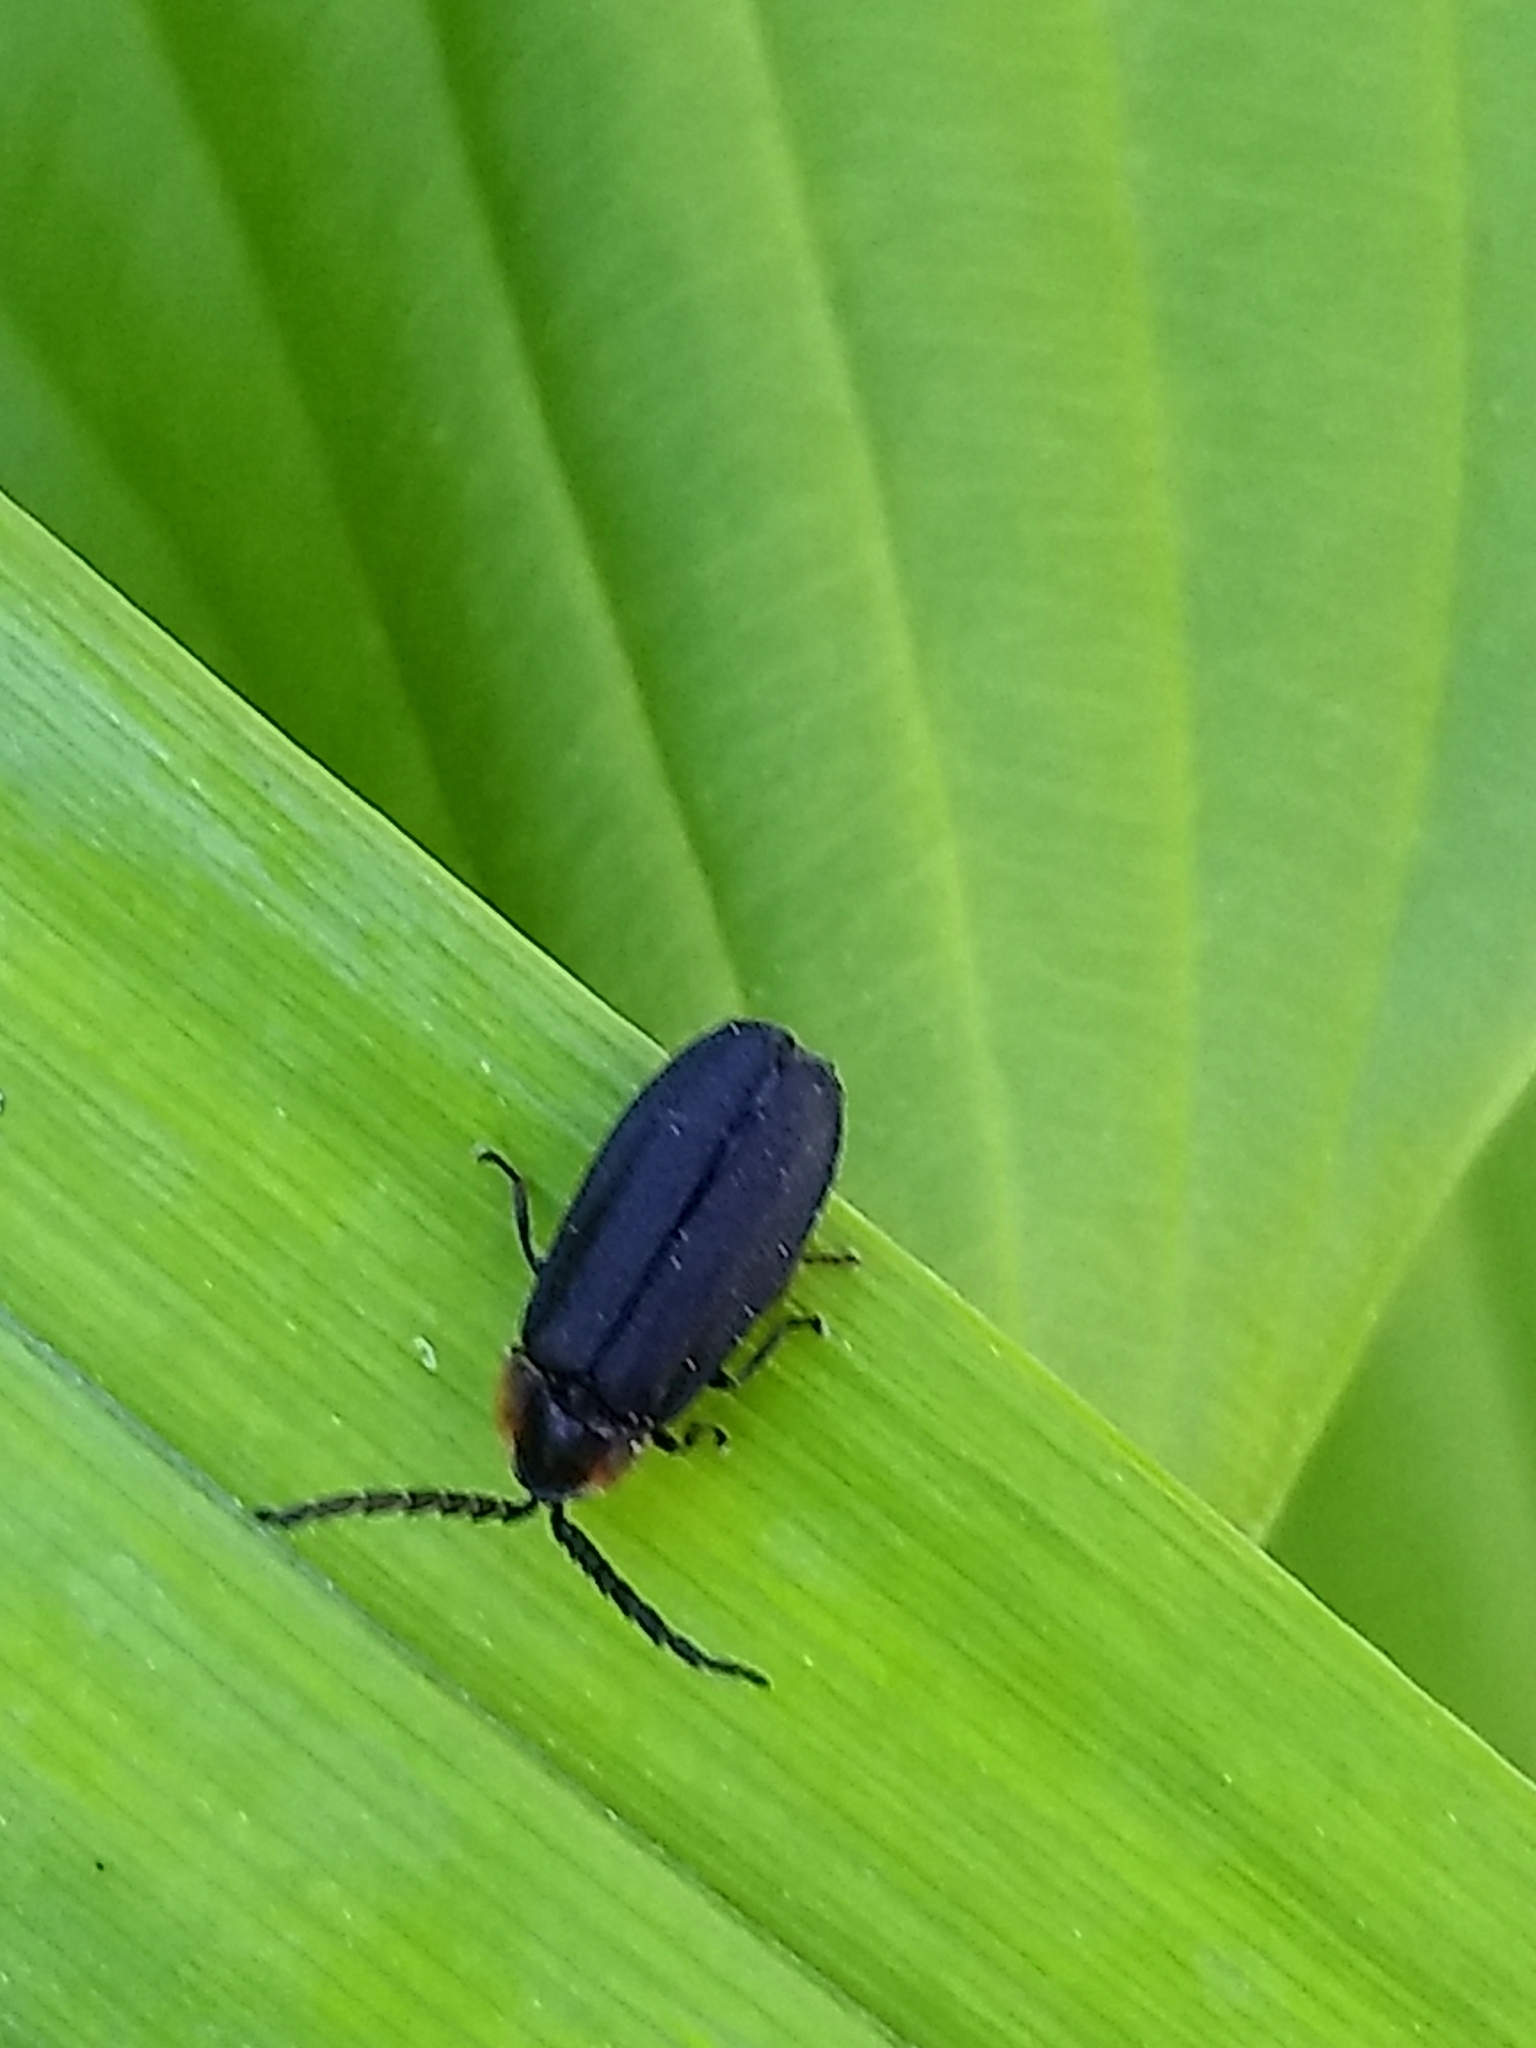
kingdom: Animalia
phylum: Arthropoda
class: Insecta
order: Coleoptera
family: Lampyridae
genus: Lucidota
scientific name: Lucidota atra
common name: Black firefly
